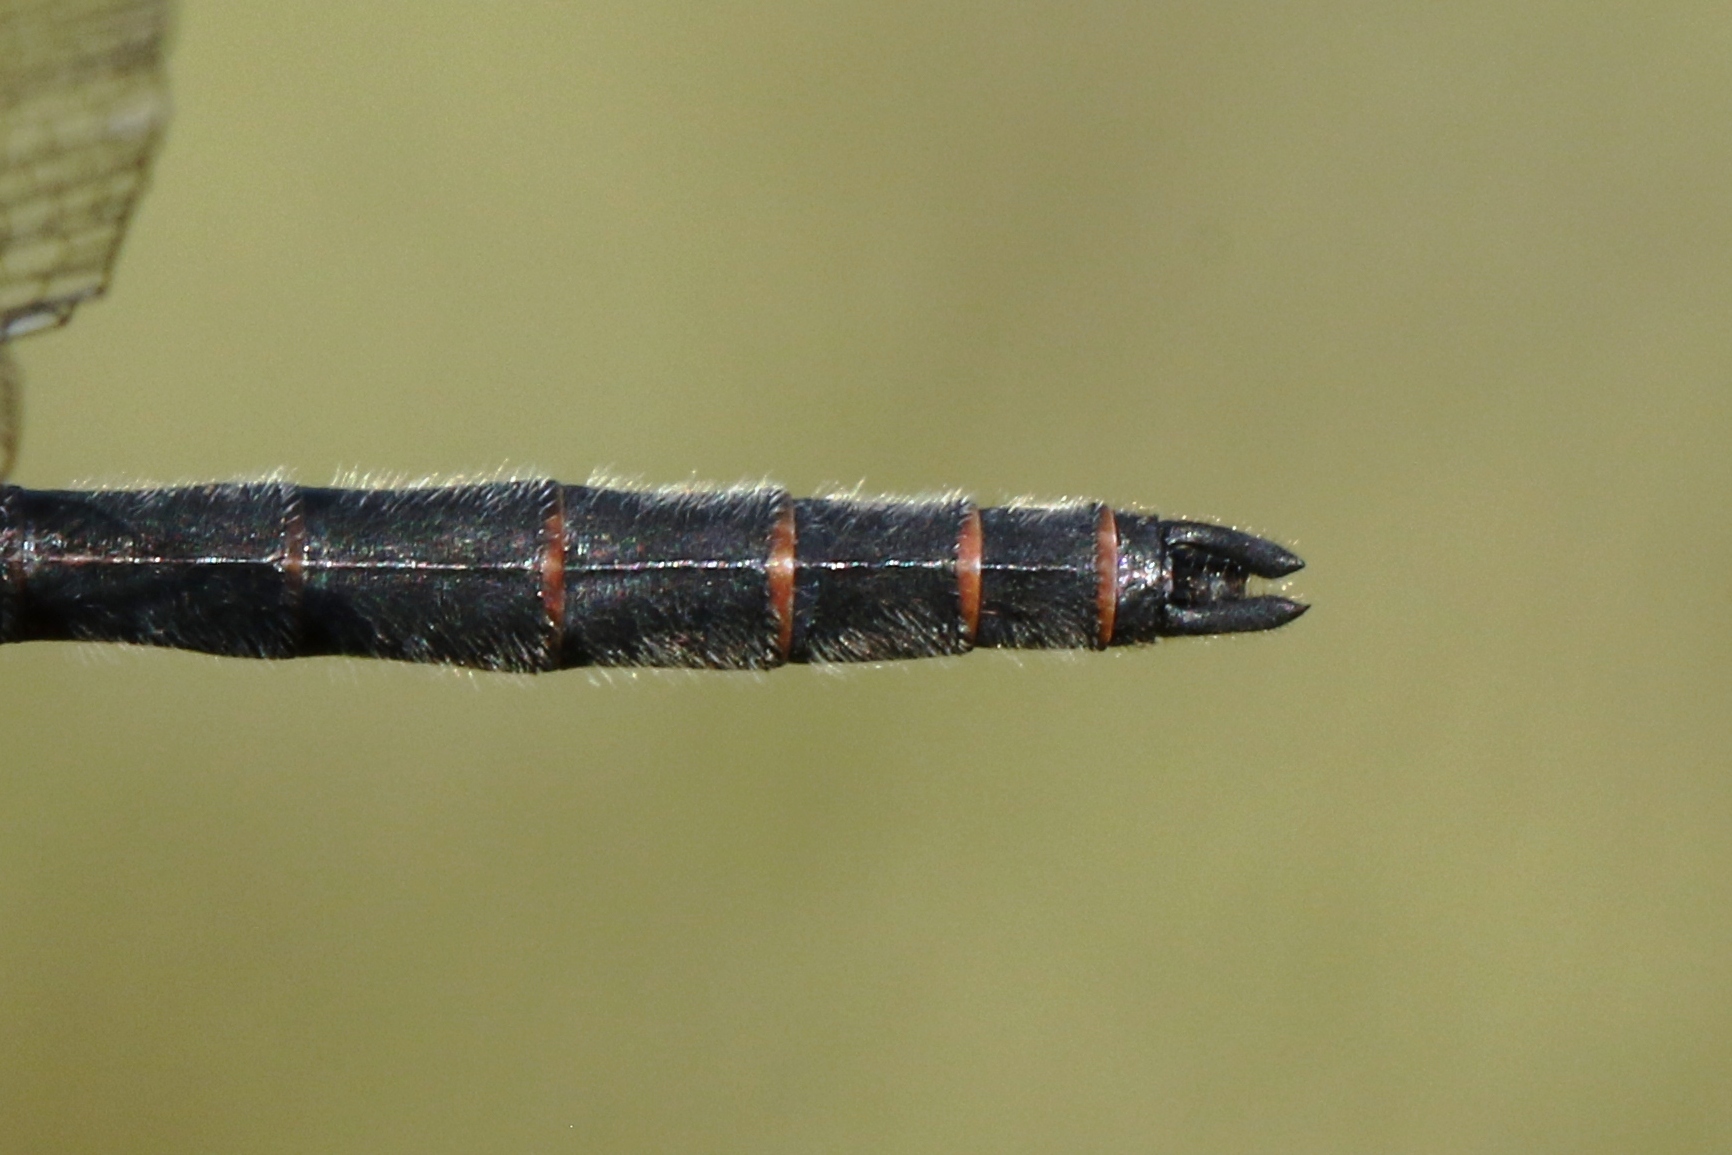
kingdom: Animalia
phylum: Arthropoda
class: Insecta
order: Odonata
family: Libellulidae
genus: Leucorrhinia
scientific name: Leucorrhinia patricia
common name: Canada whiteface
